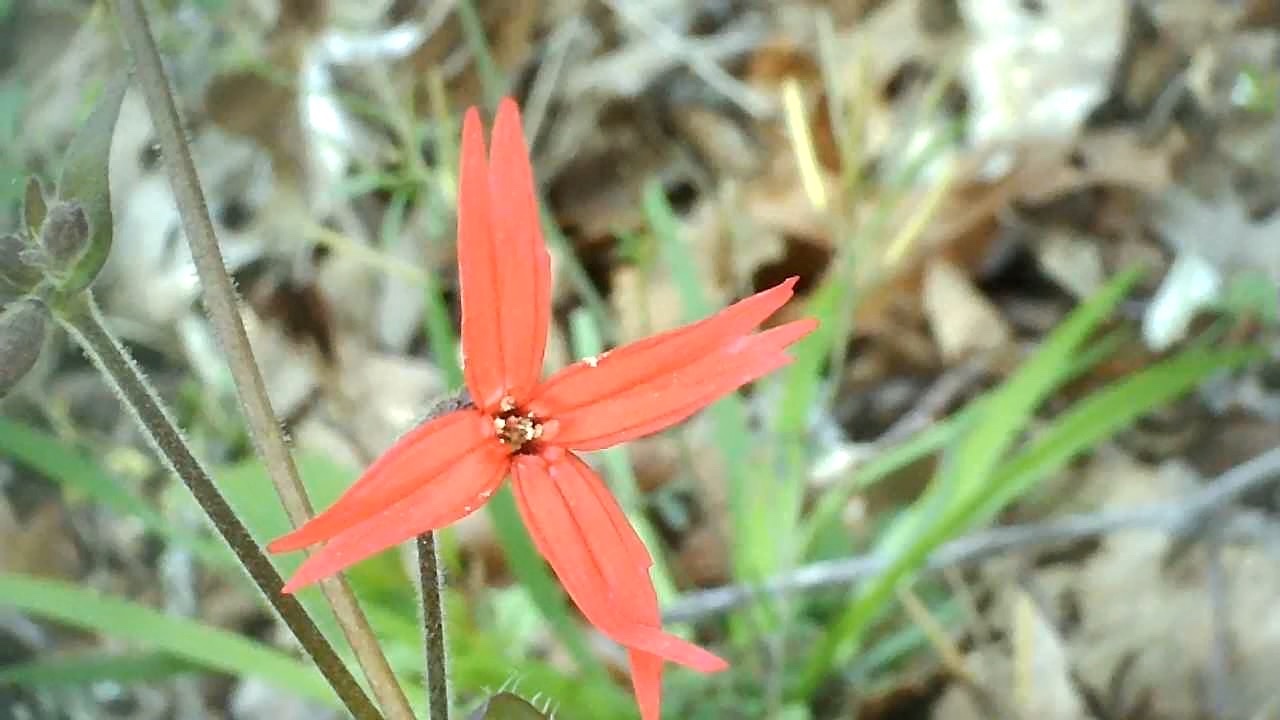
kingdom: Plantae
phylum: Tracheophyta
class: Magnoliopsida
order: Caryophyllales
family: Caryophyllaceae
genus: Silene
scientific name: Silene virginica
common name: Fire-pink
